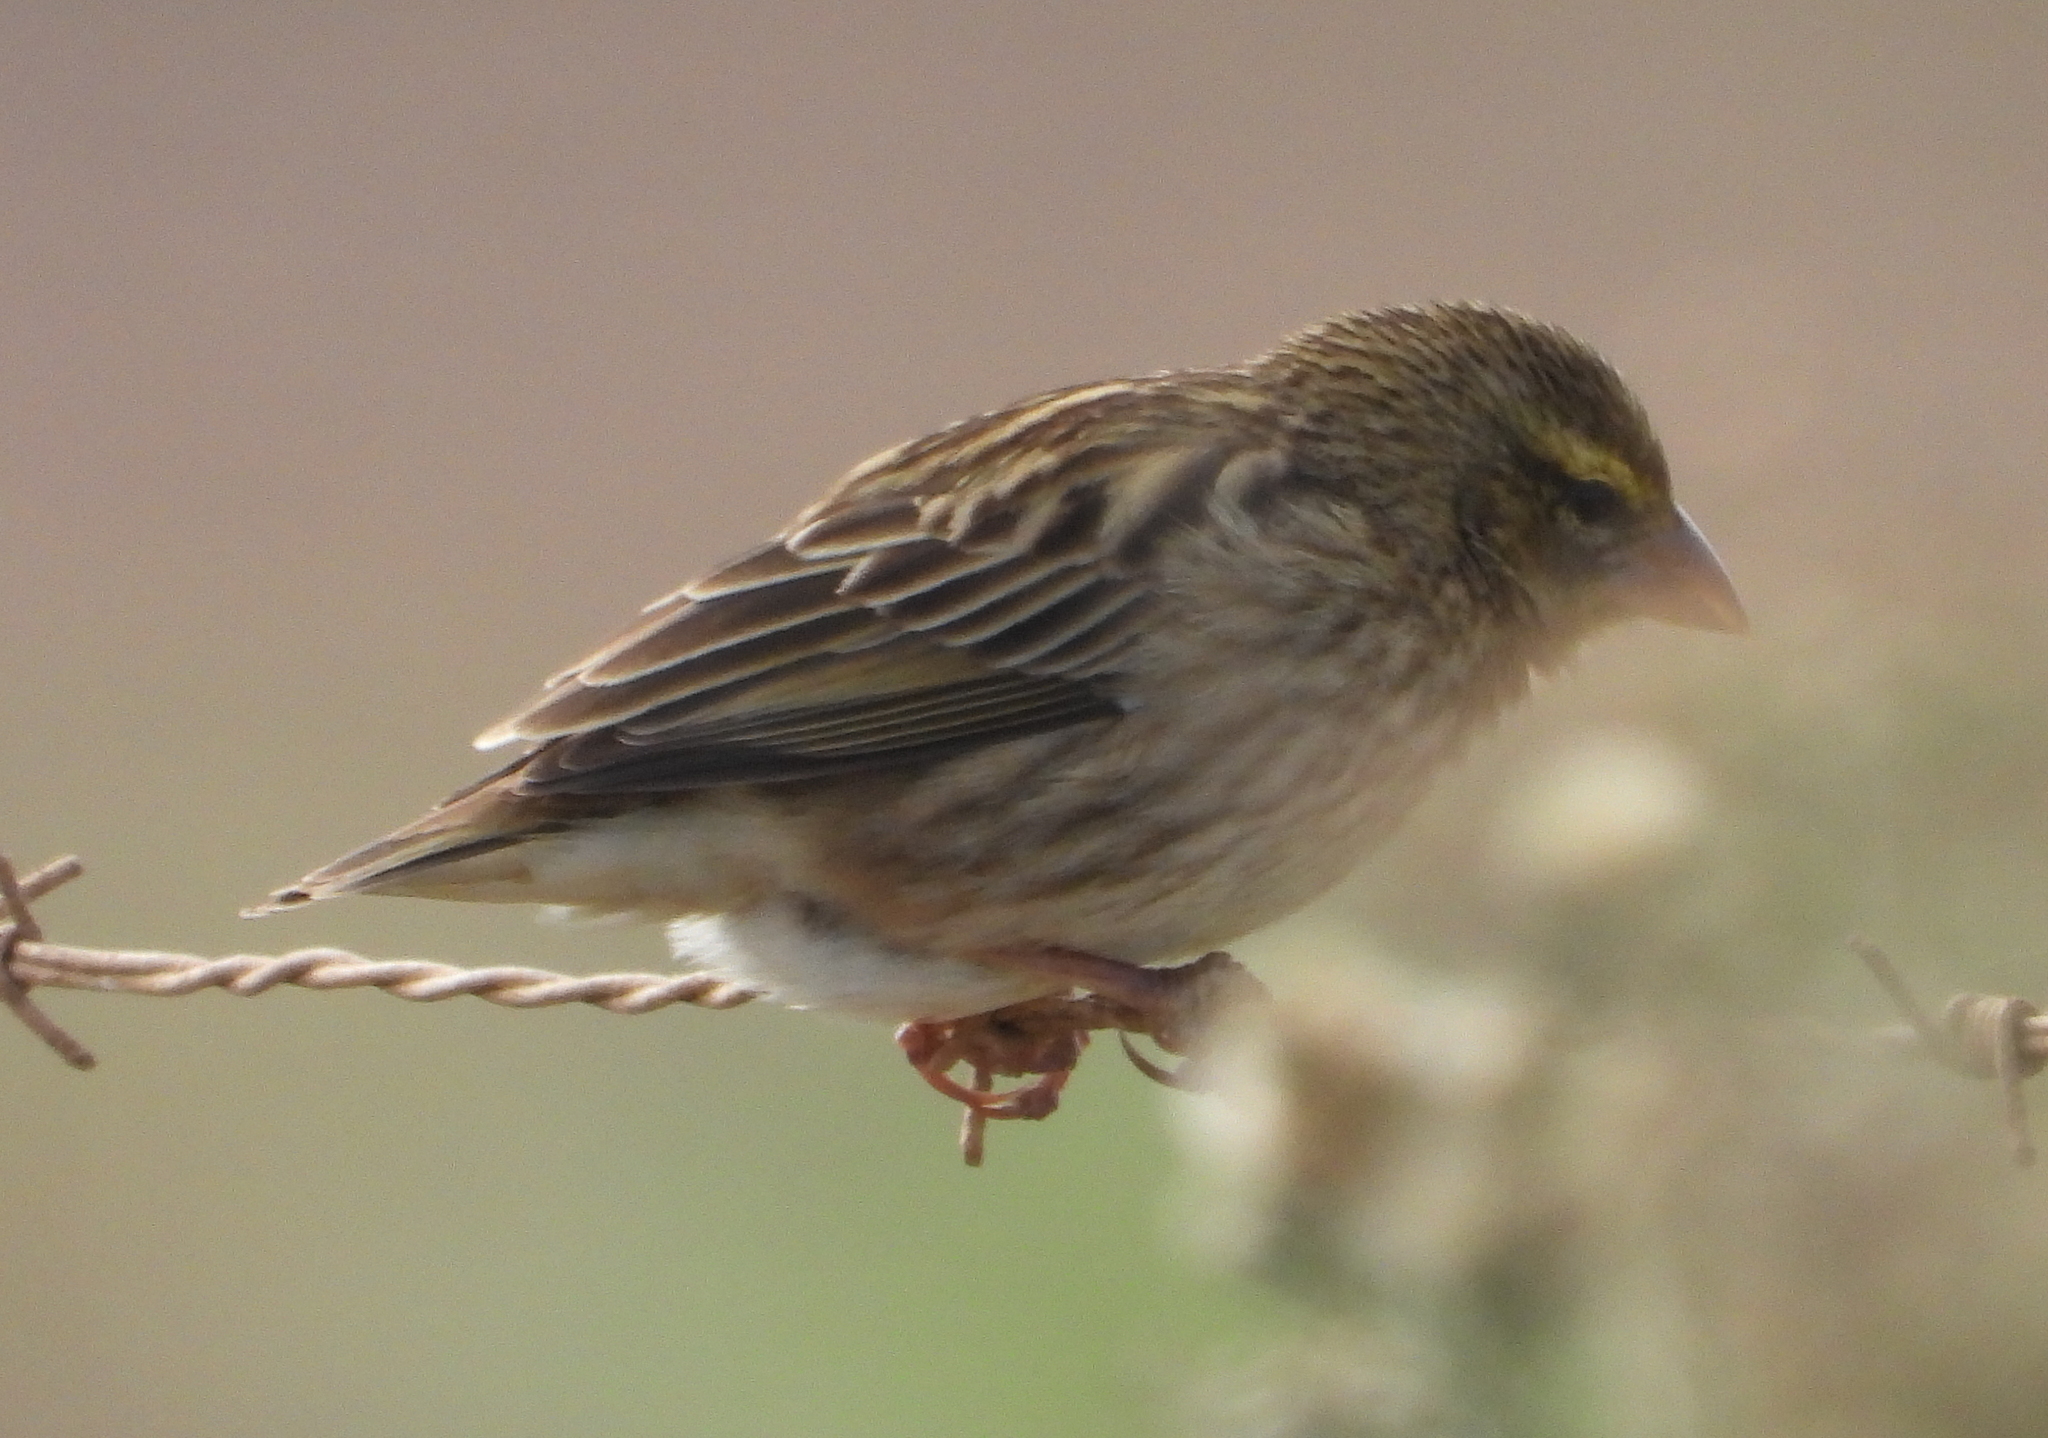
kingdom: Animalia
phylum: Chordata
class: Aves
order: Passeriformes
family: Ploceidae
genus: Euplectes
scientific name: Euplectes orix
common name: Southern red bishop
